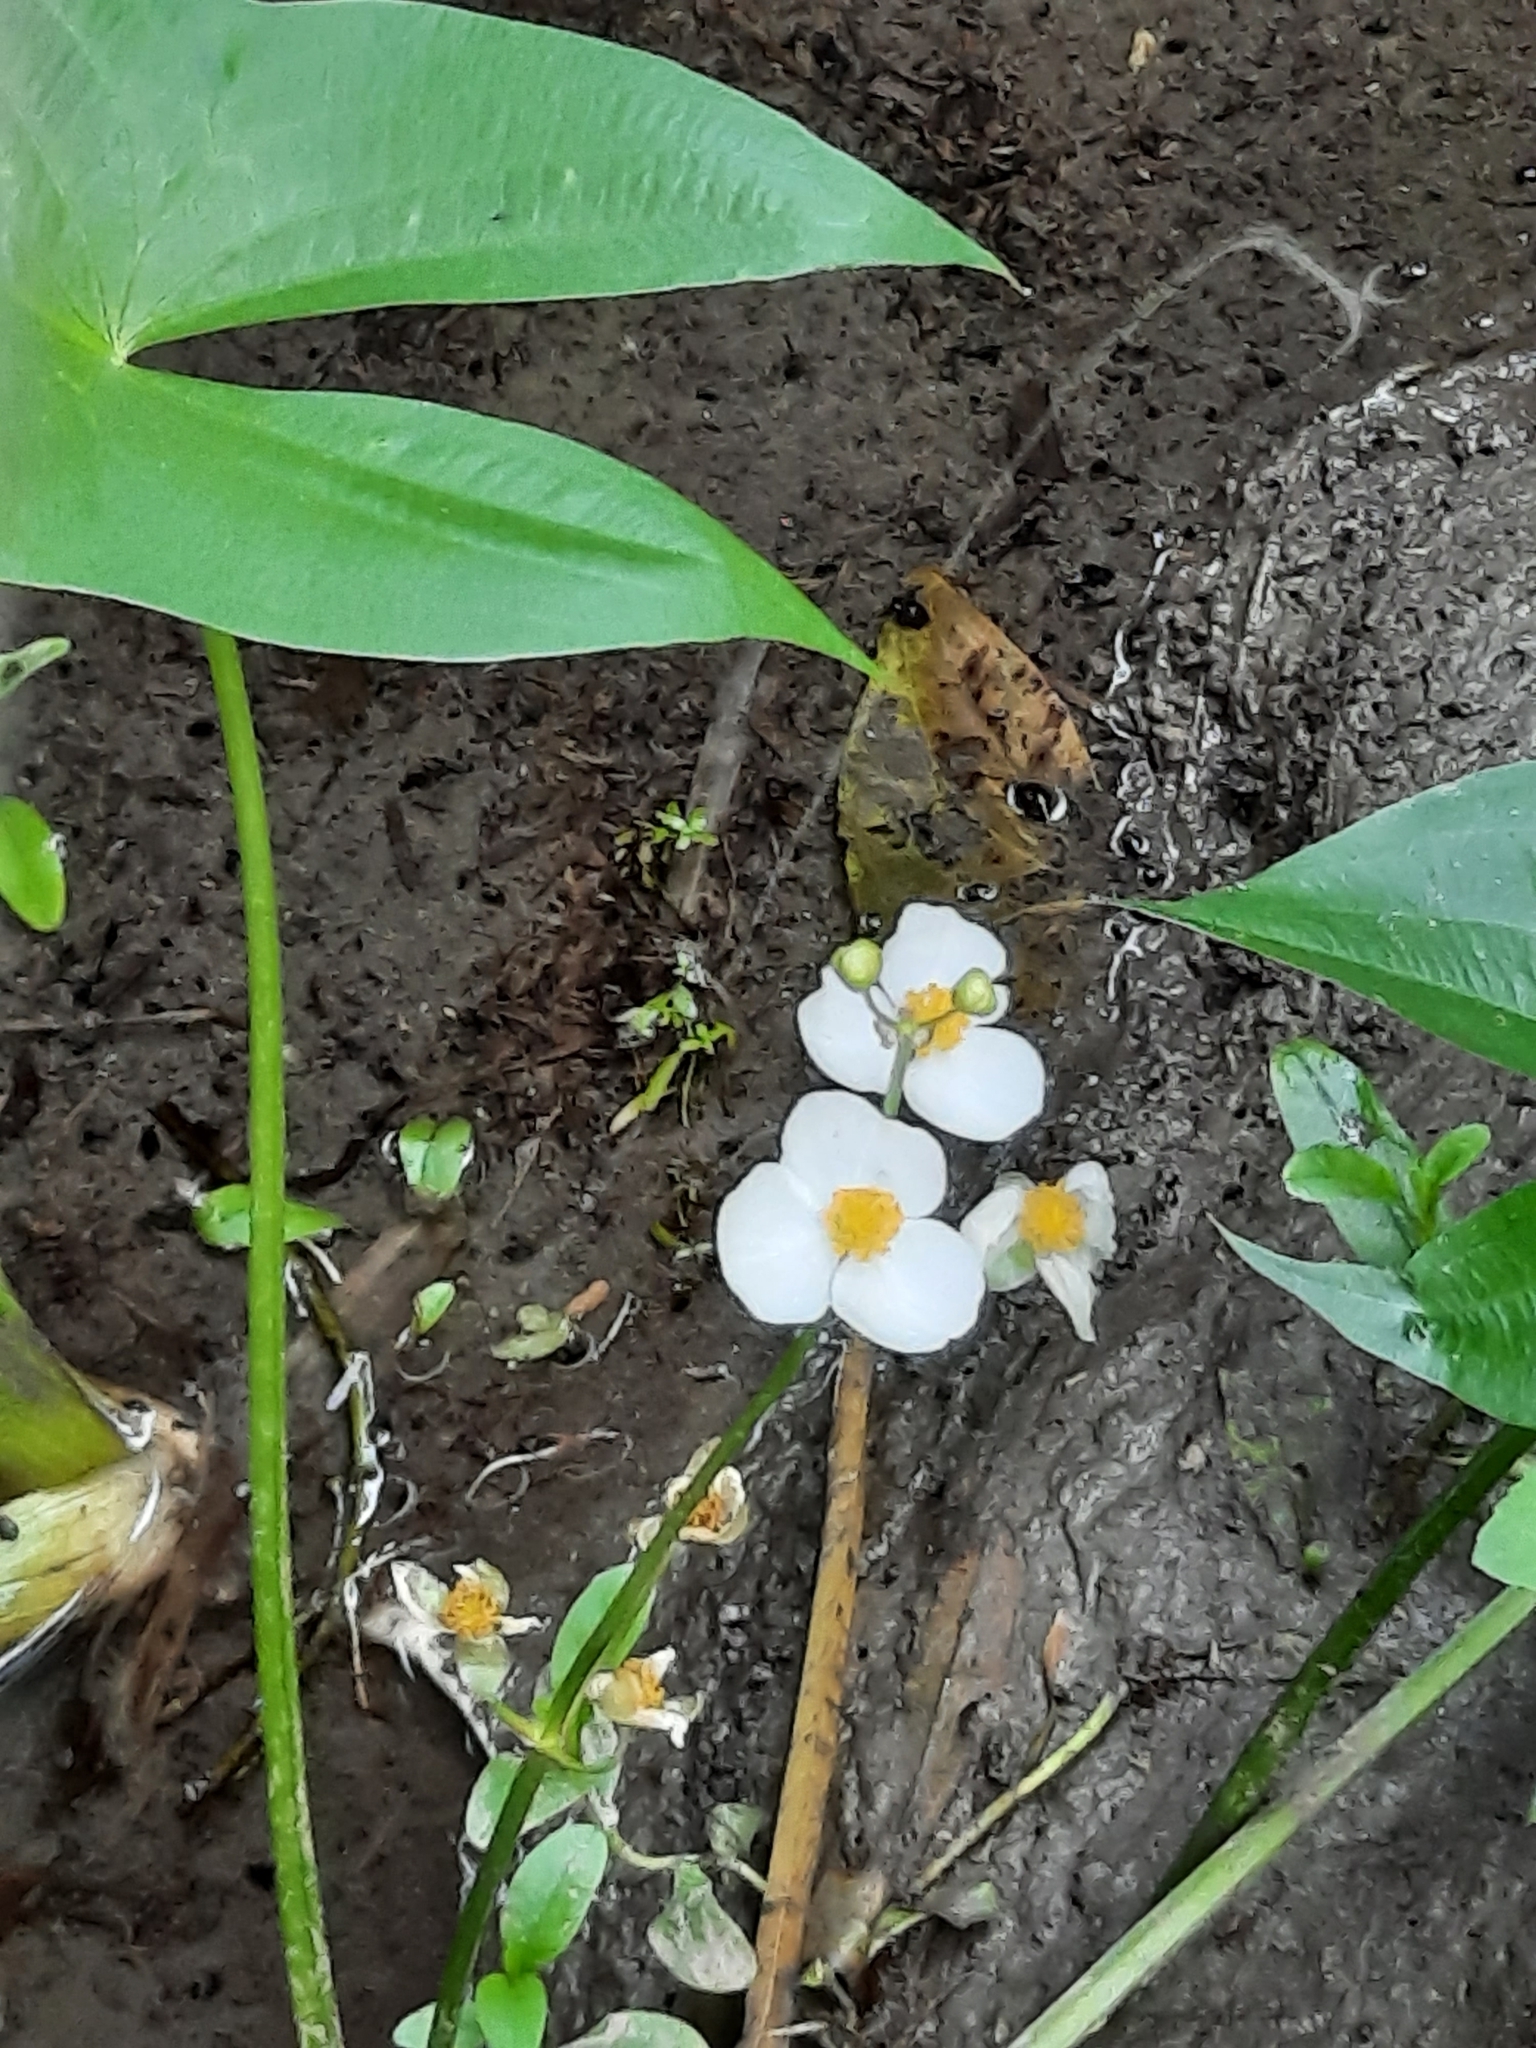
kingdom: Plantae
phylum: Tracheophyta
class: Liliopsida
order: Alismatales
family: Alismataceae
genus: Sagittaria
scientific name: Sagittaria latifolia
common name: Duck-potato
